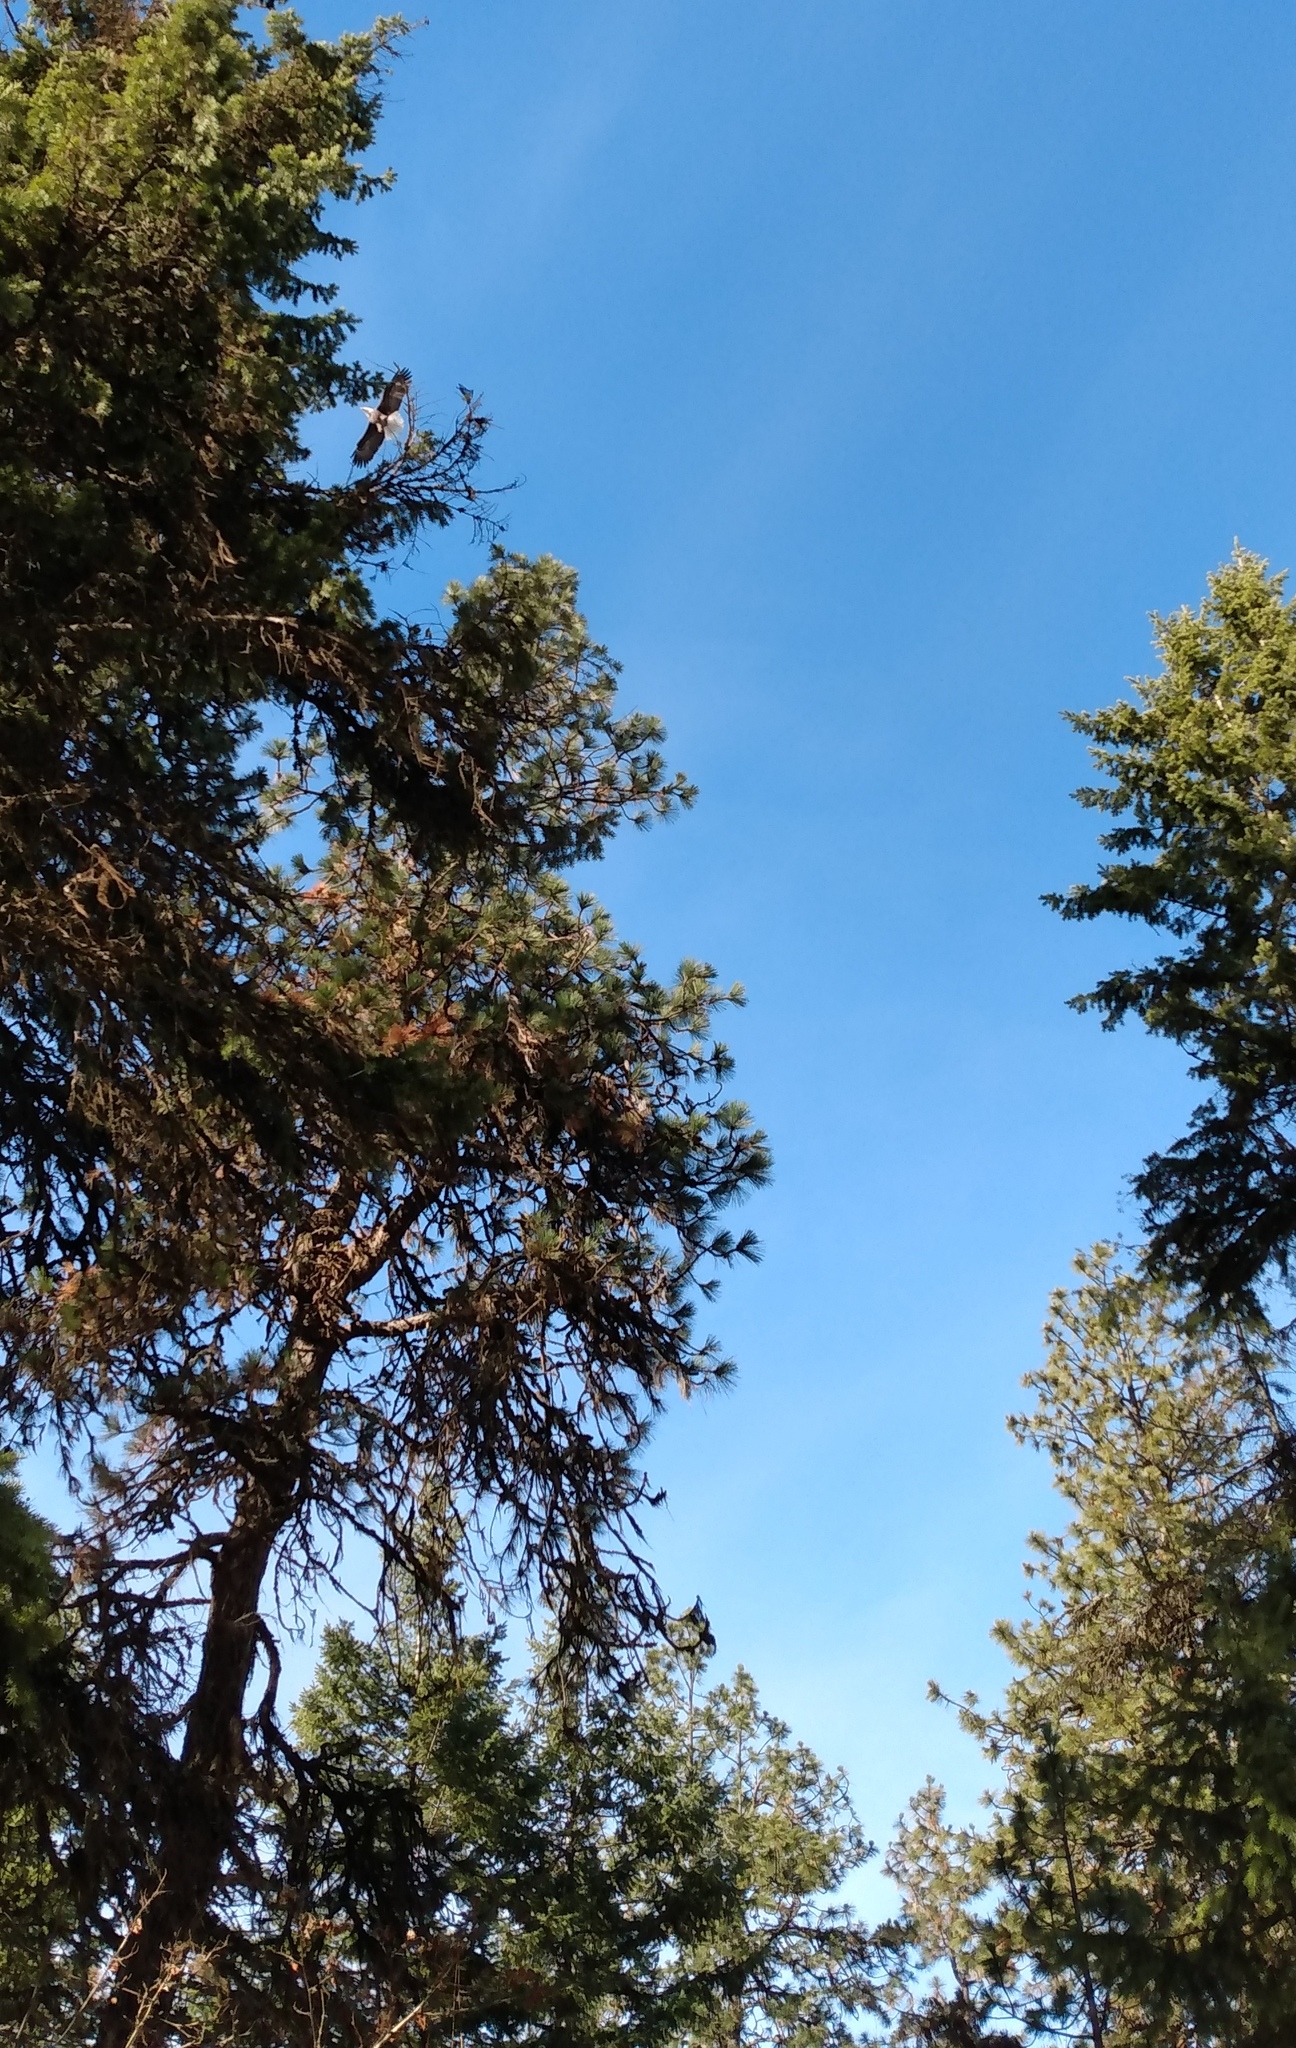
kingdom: Animalia
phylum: Chordata
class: Aves
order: Accipitriformes
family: Accipitridae
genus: Haliaeetus
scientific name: Haliaeetus leucocephalus
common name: Bald eagle
